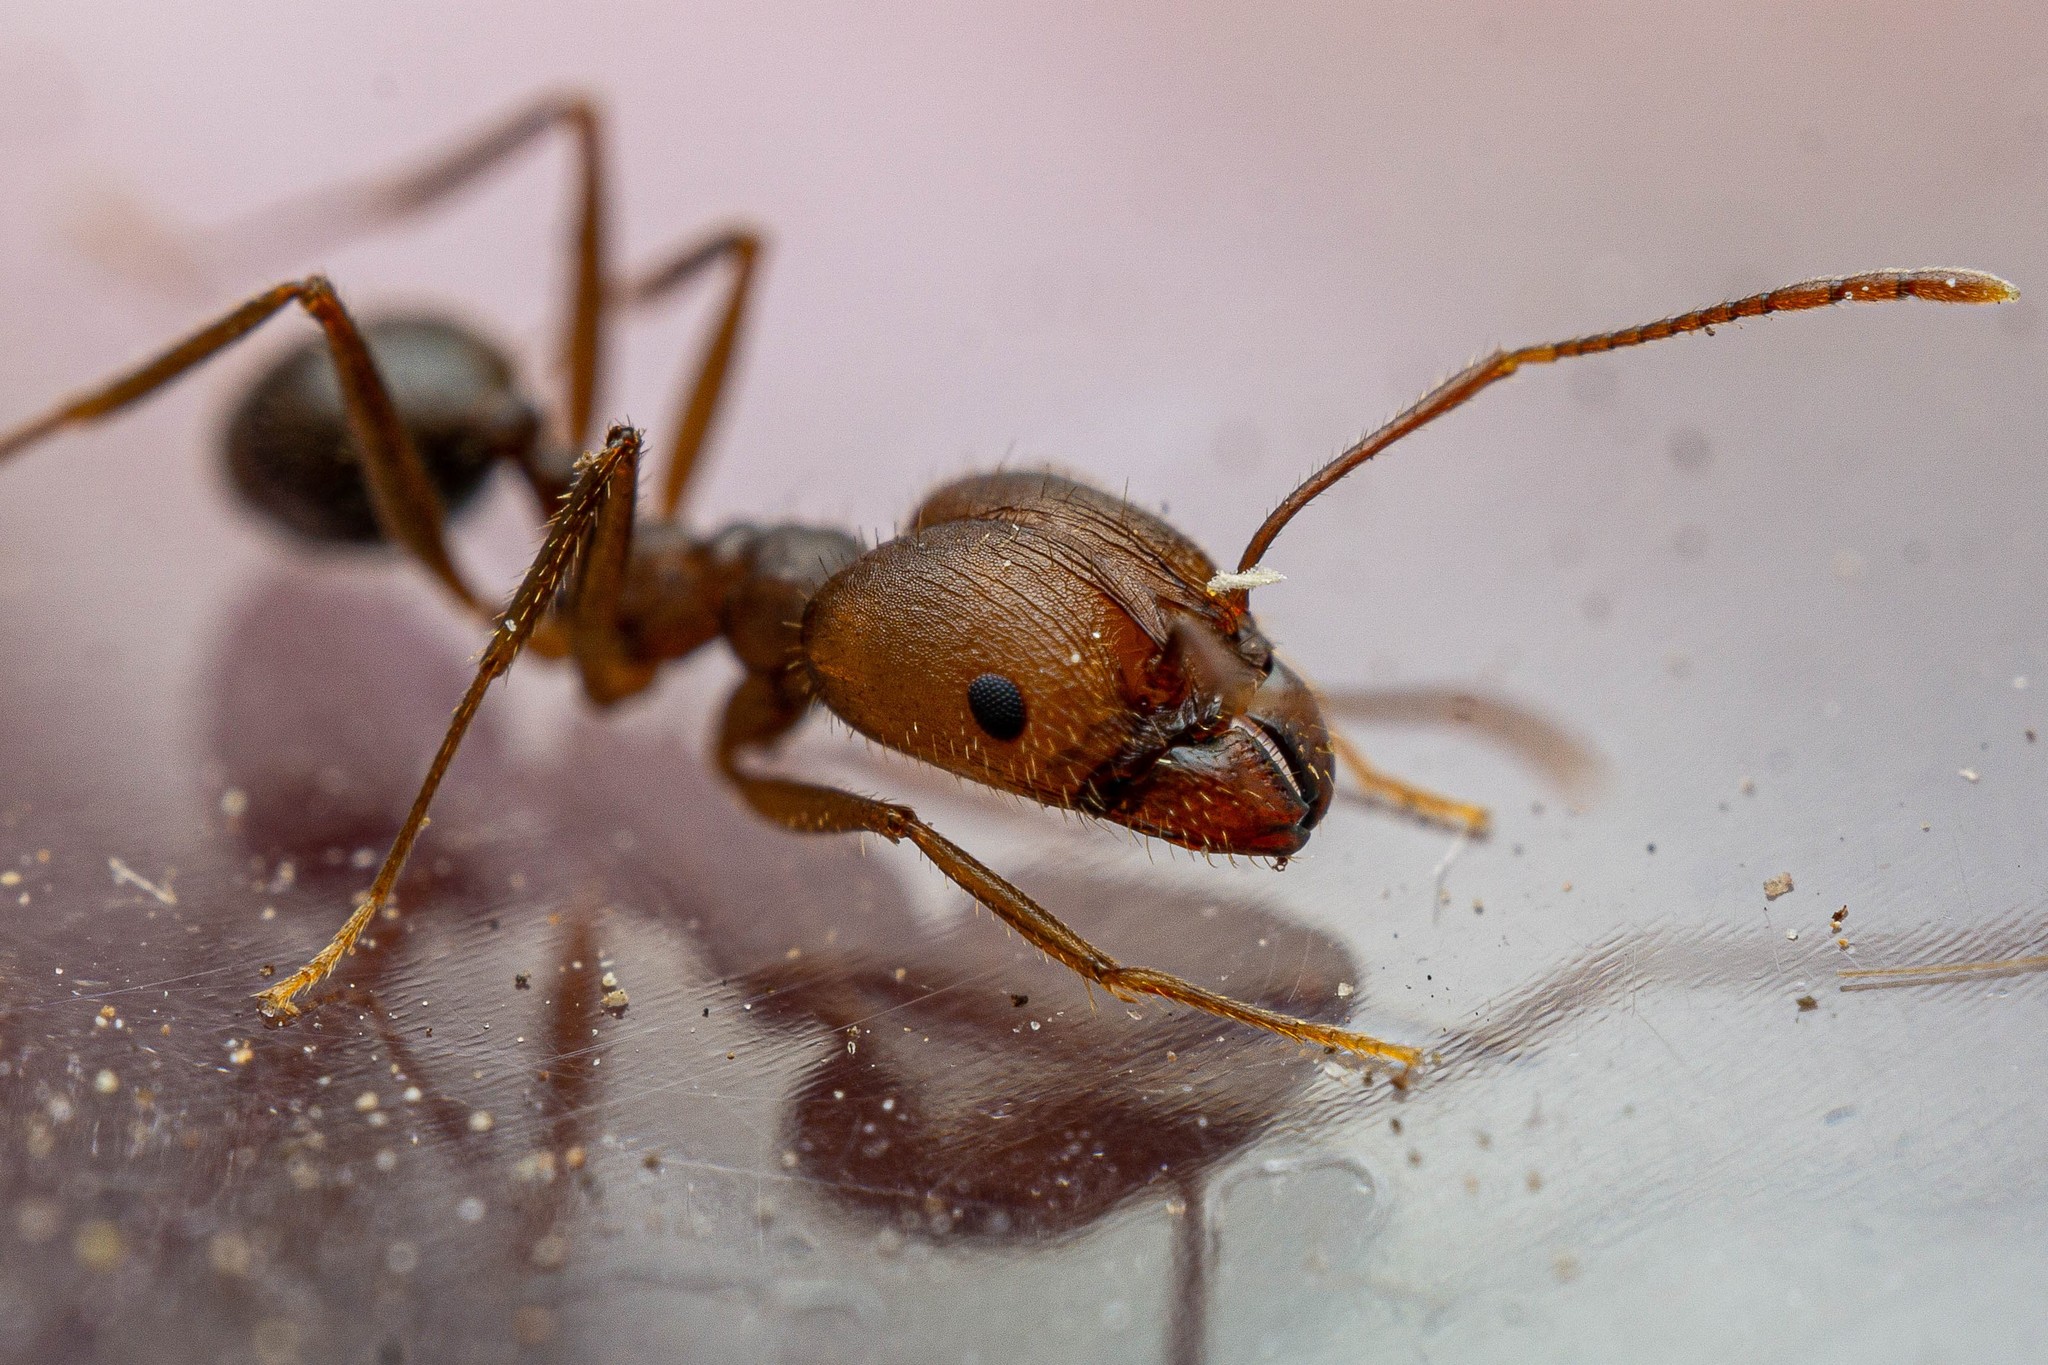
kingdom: Animalia
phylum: Arthropoda
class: Insecta
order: Hymenoptera
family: Formicidae
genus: Pheidole
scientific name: Pheidole portalensis
